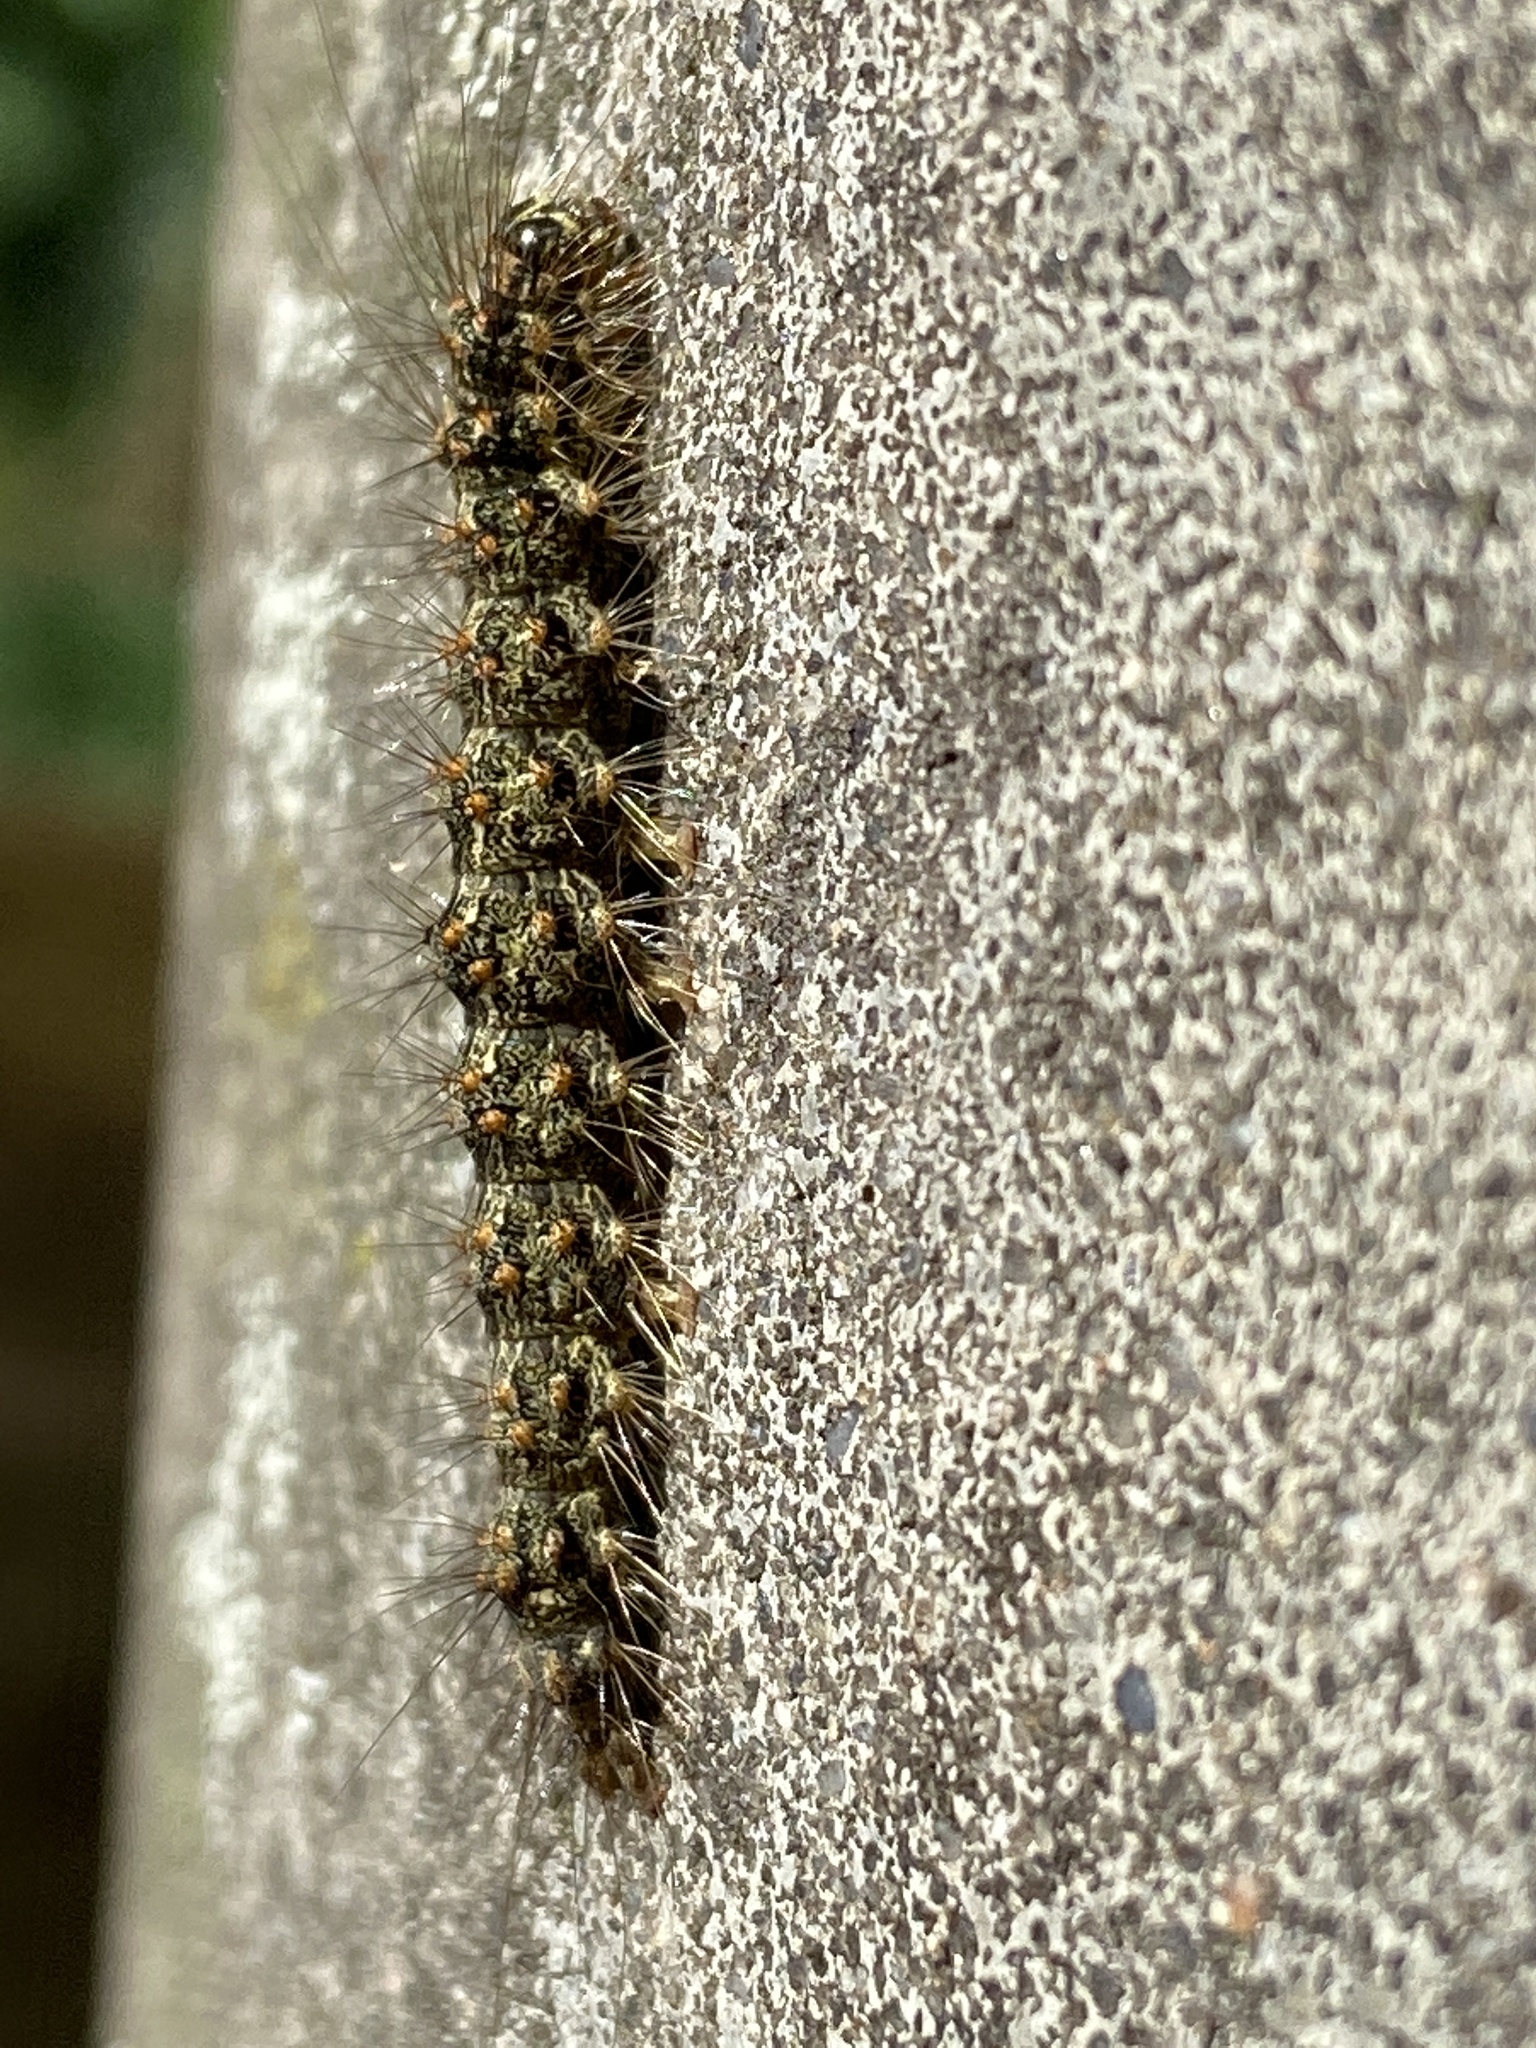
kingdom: Animalia
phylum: Arthropoda
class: Insecta
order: Lepidoptera
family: Erebidae
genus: Atolmis
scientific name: Atolmis rubricollis
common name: Red-necked footman
